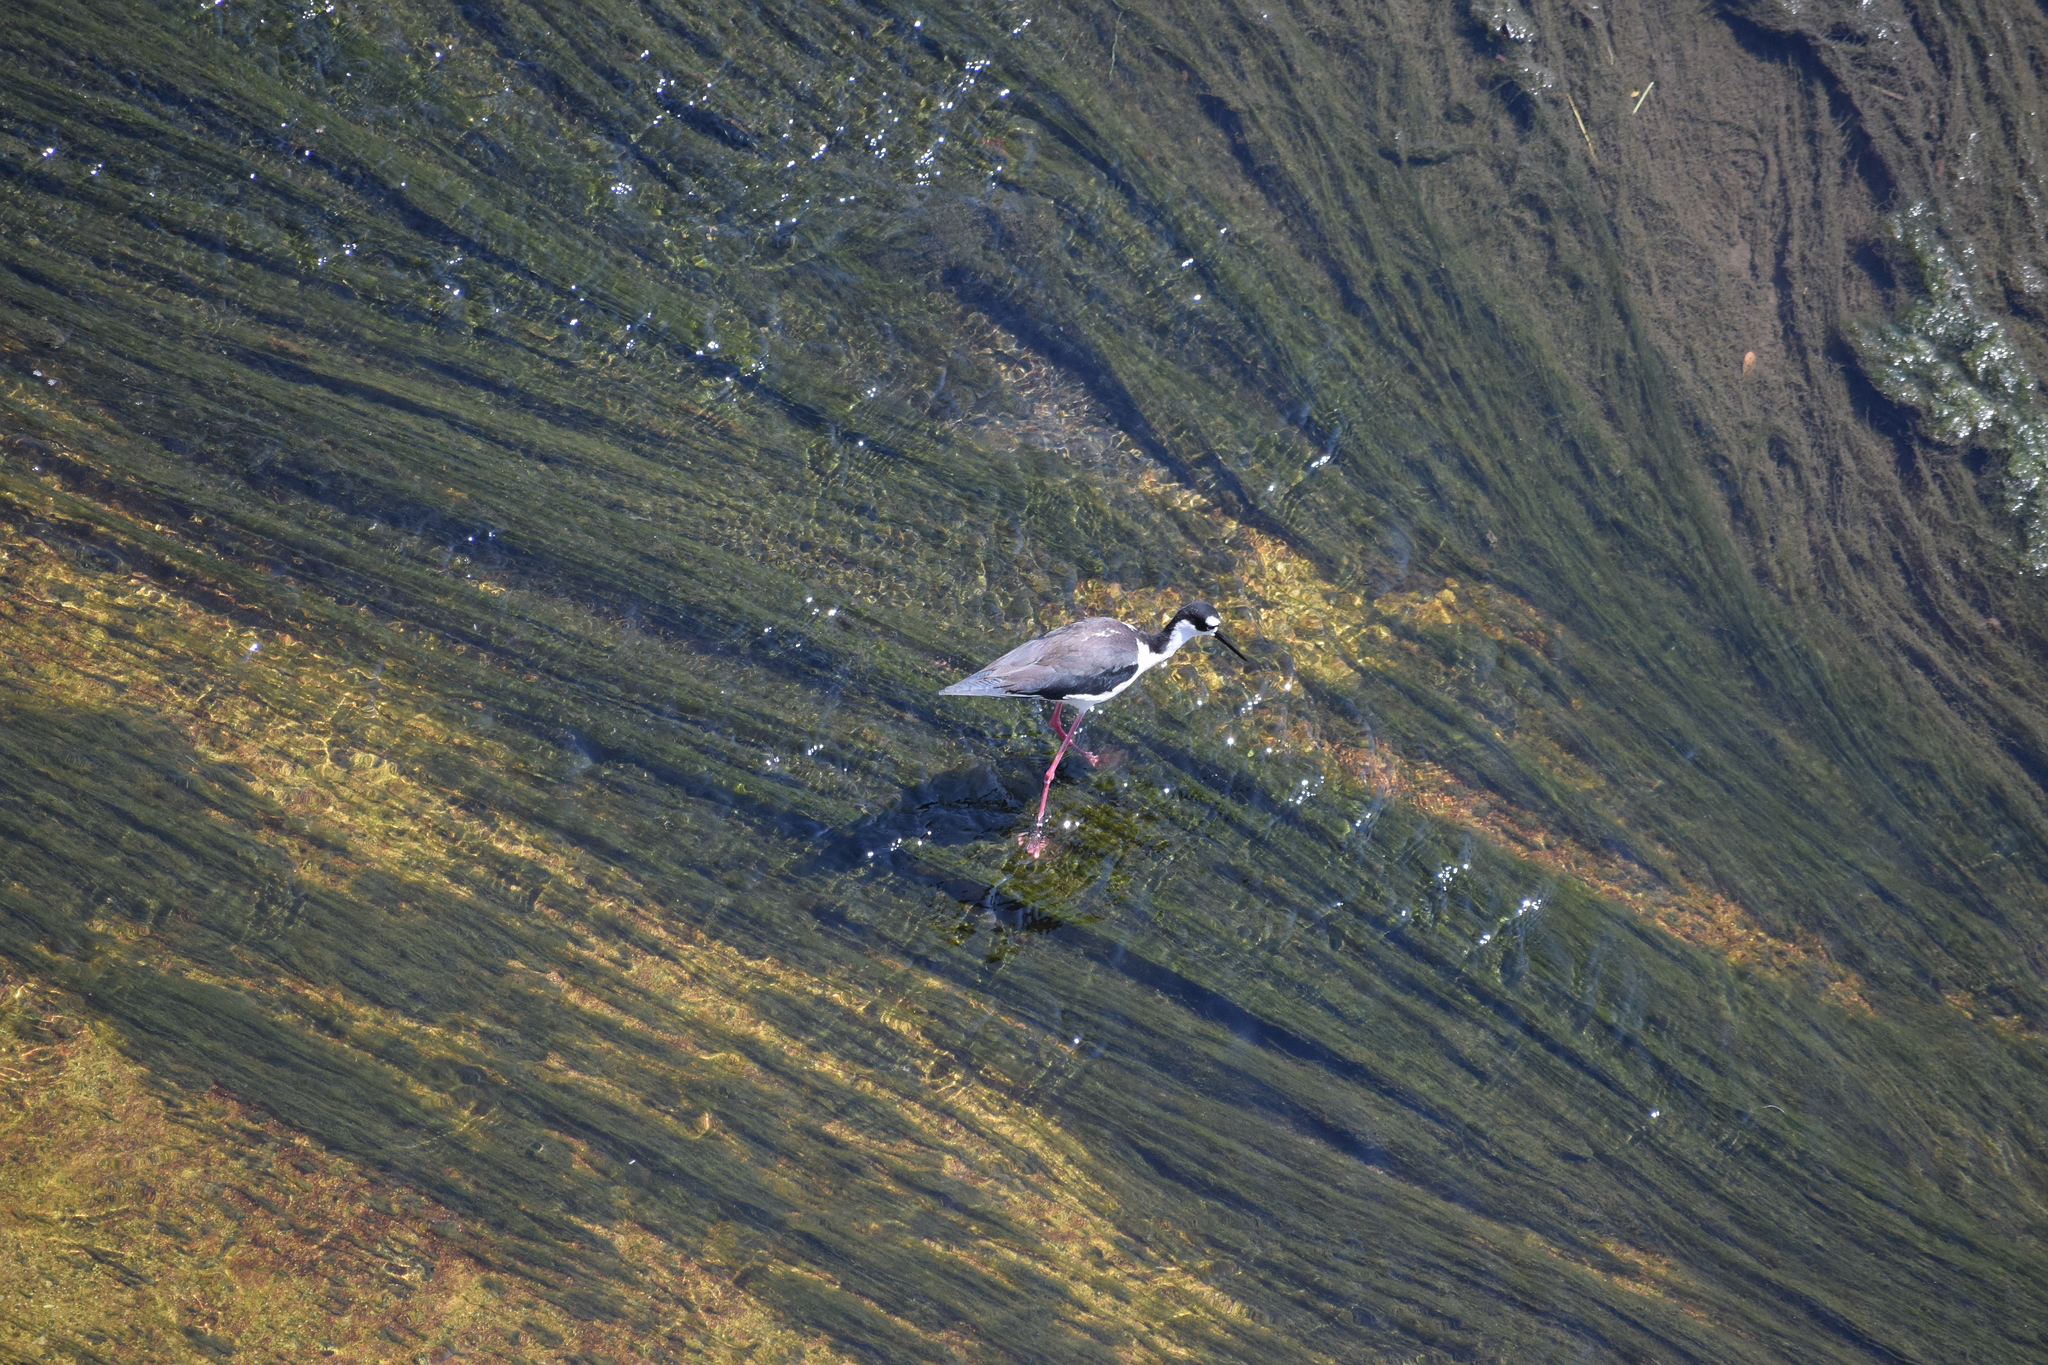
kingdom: Animalia
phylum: Chordata
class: Aves
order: Charadriiformes
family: Recurvirostridae
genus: Himantopus
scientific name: Himantopus mexicanus
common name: Black-necked stilt
